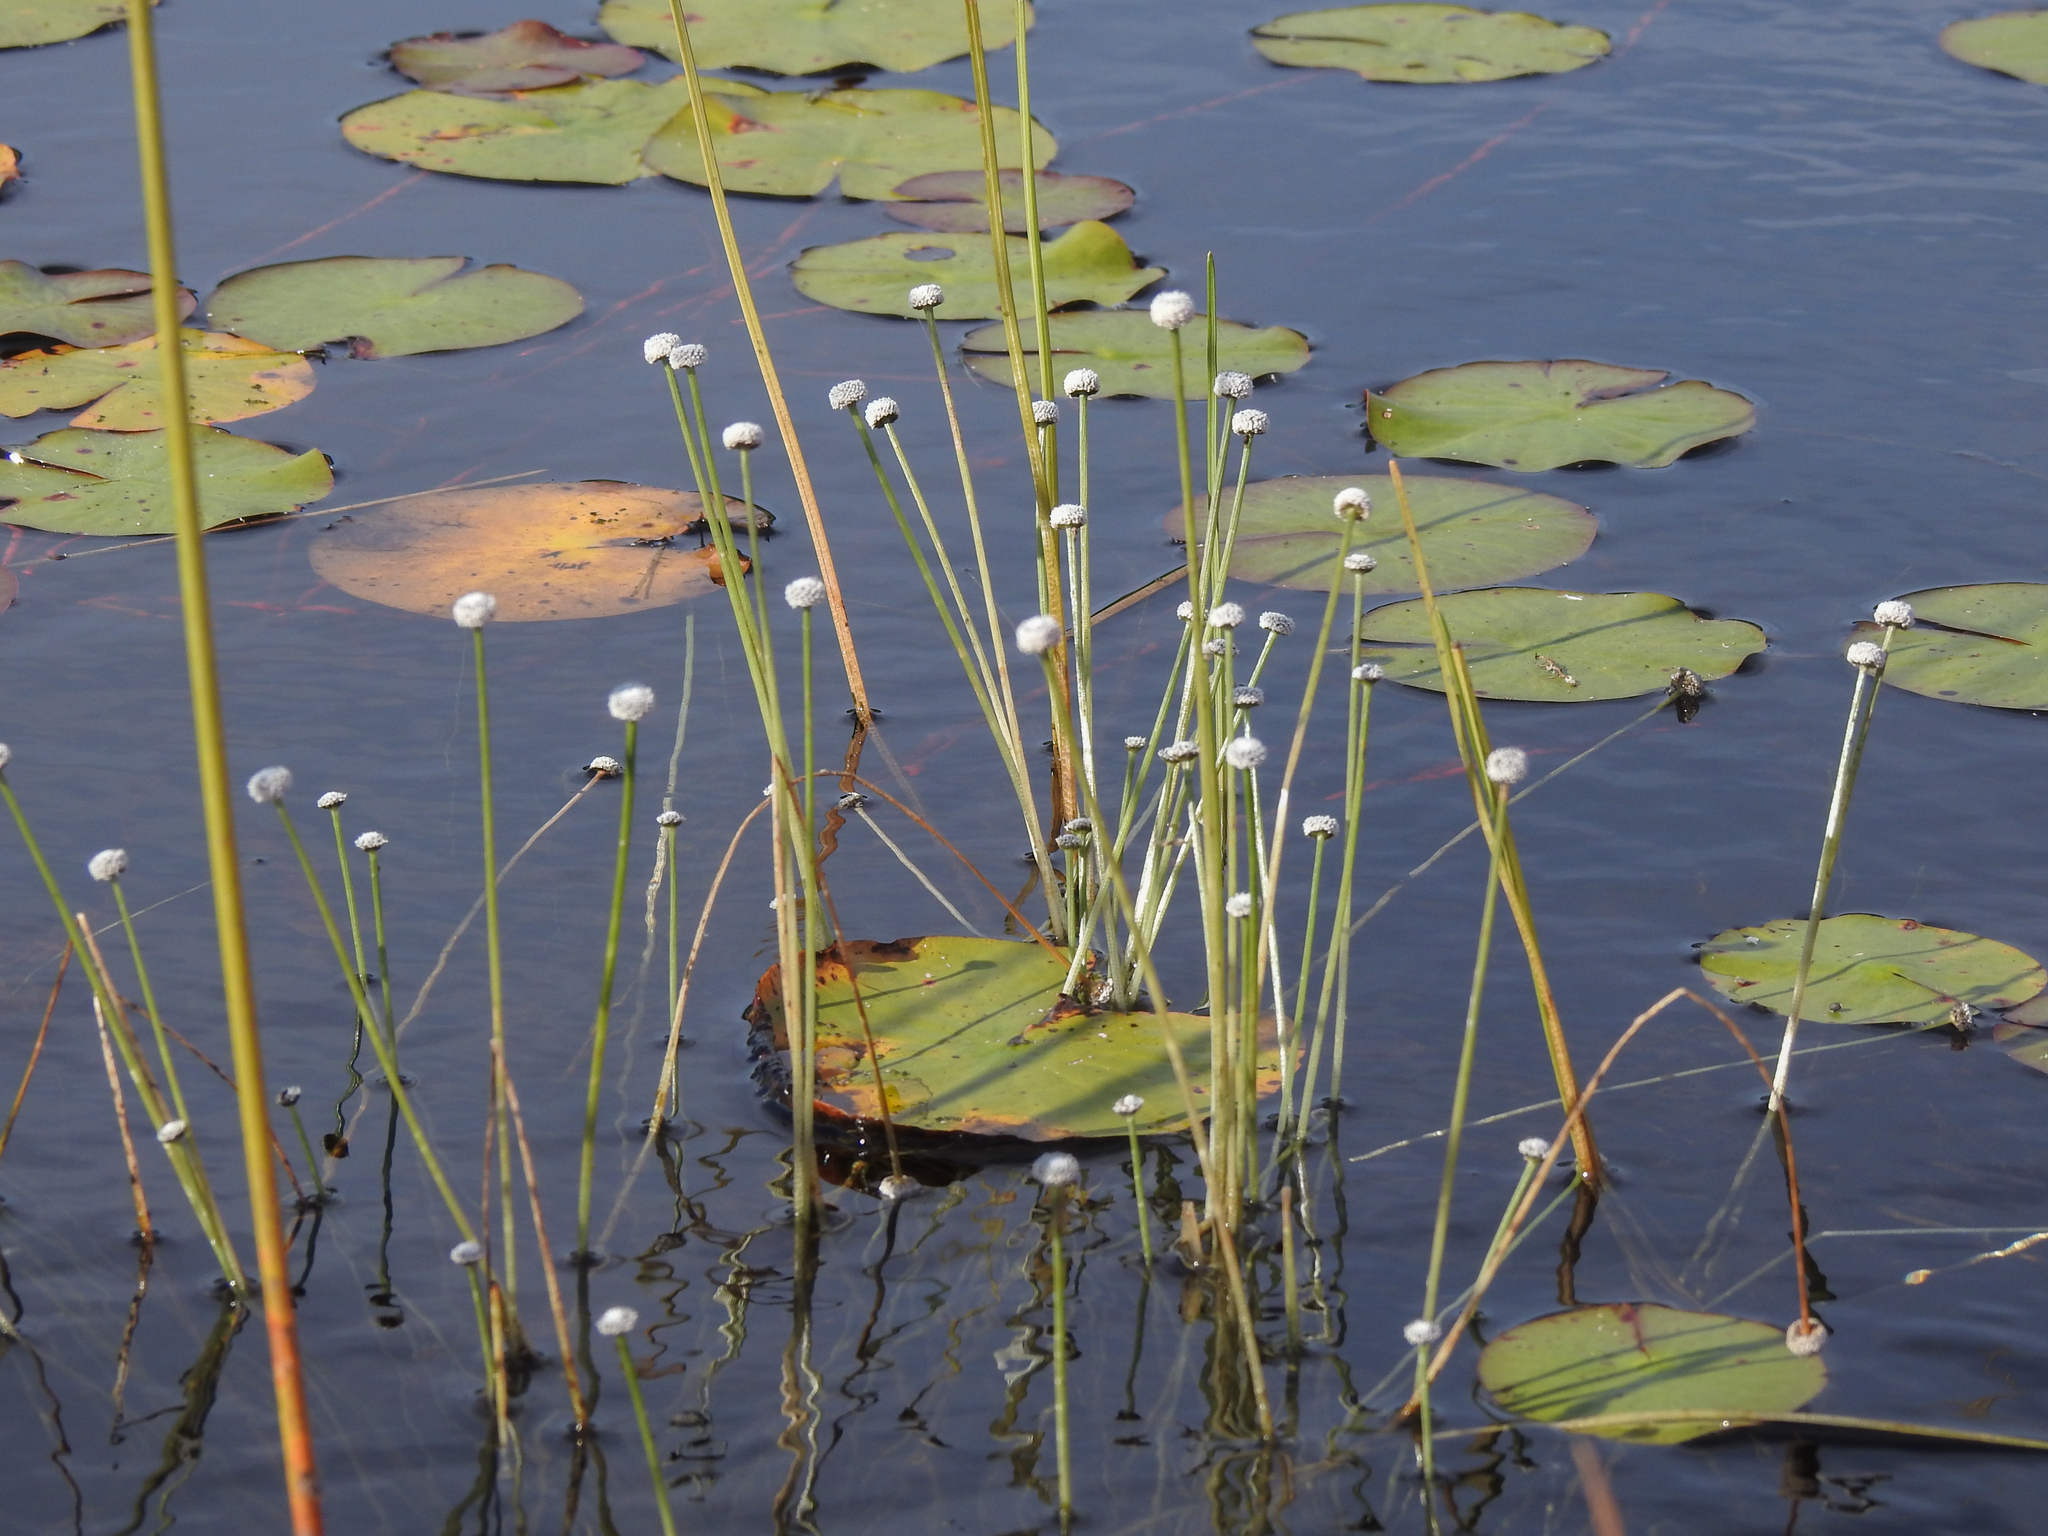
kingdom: Plantae
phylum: Tracheophyta
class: Liliopsida
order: Poales
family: Eriocaulaceae
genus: Eriocaulon
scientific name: Eriocaulon aquaticum
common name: Pipewort
